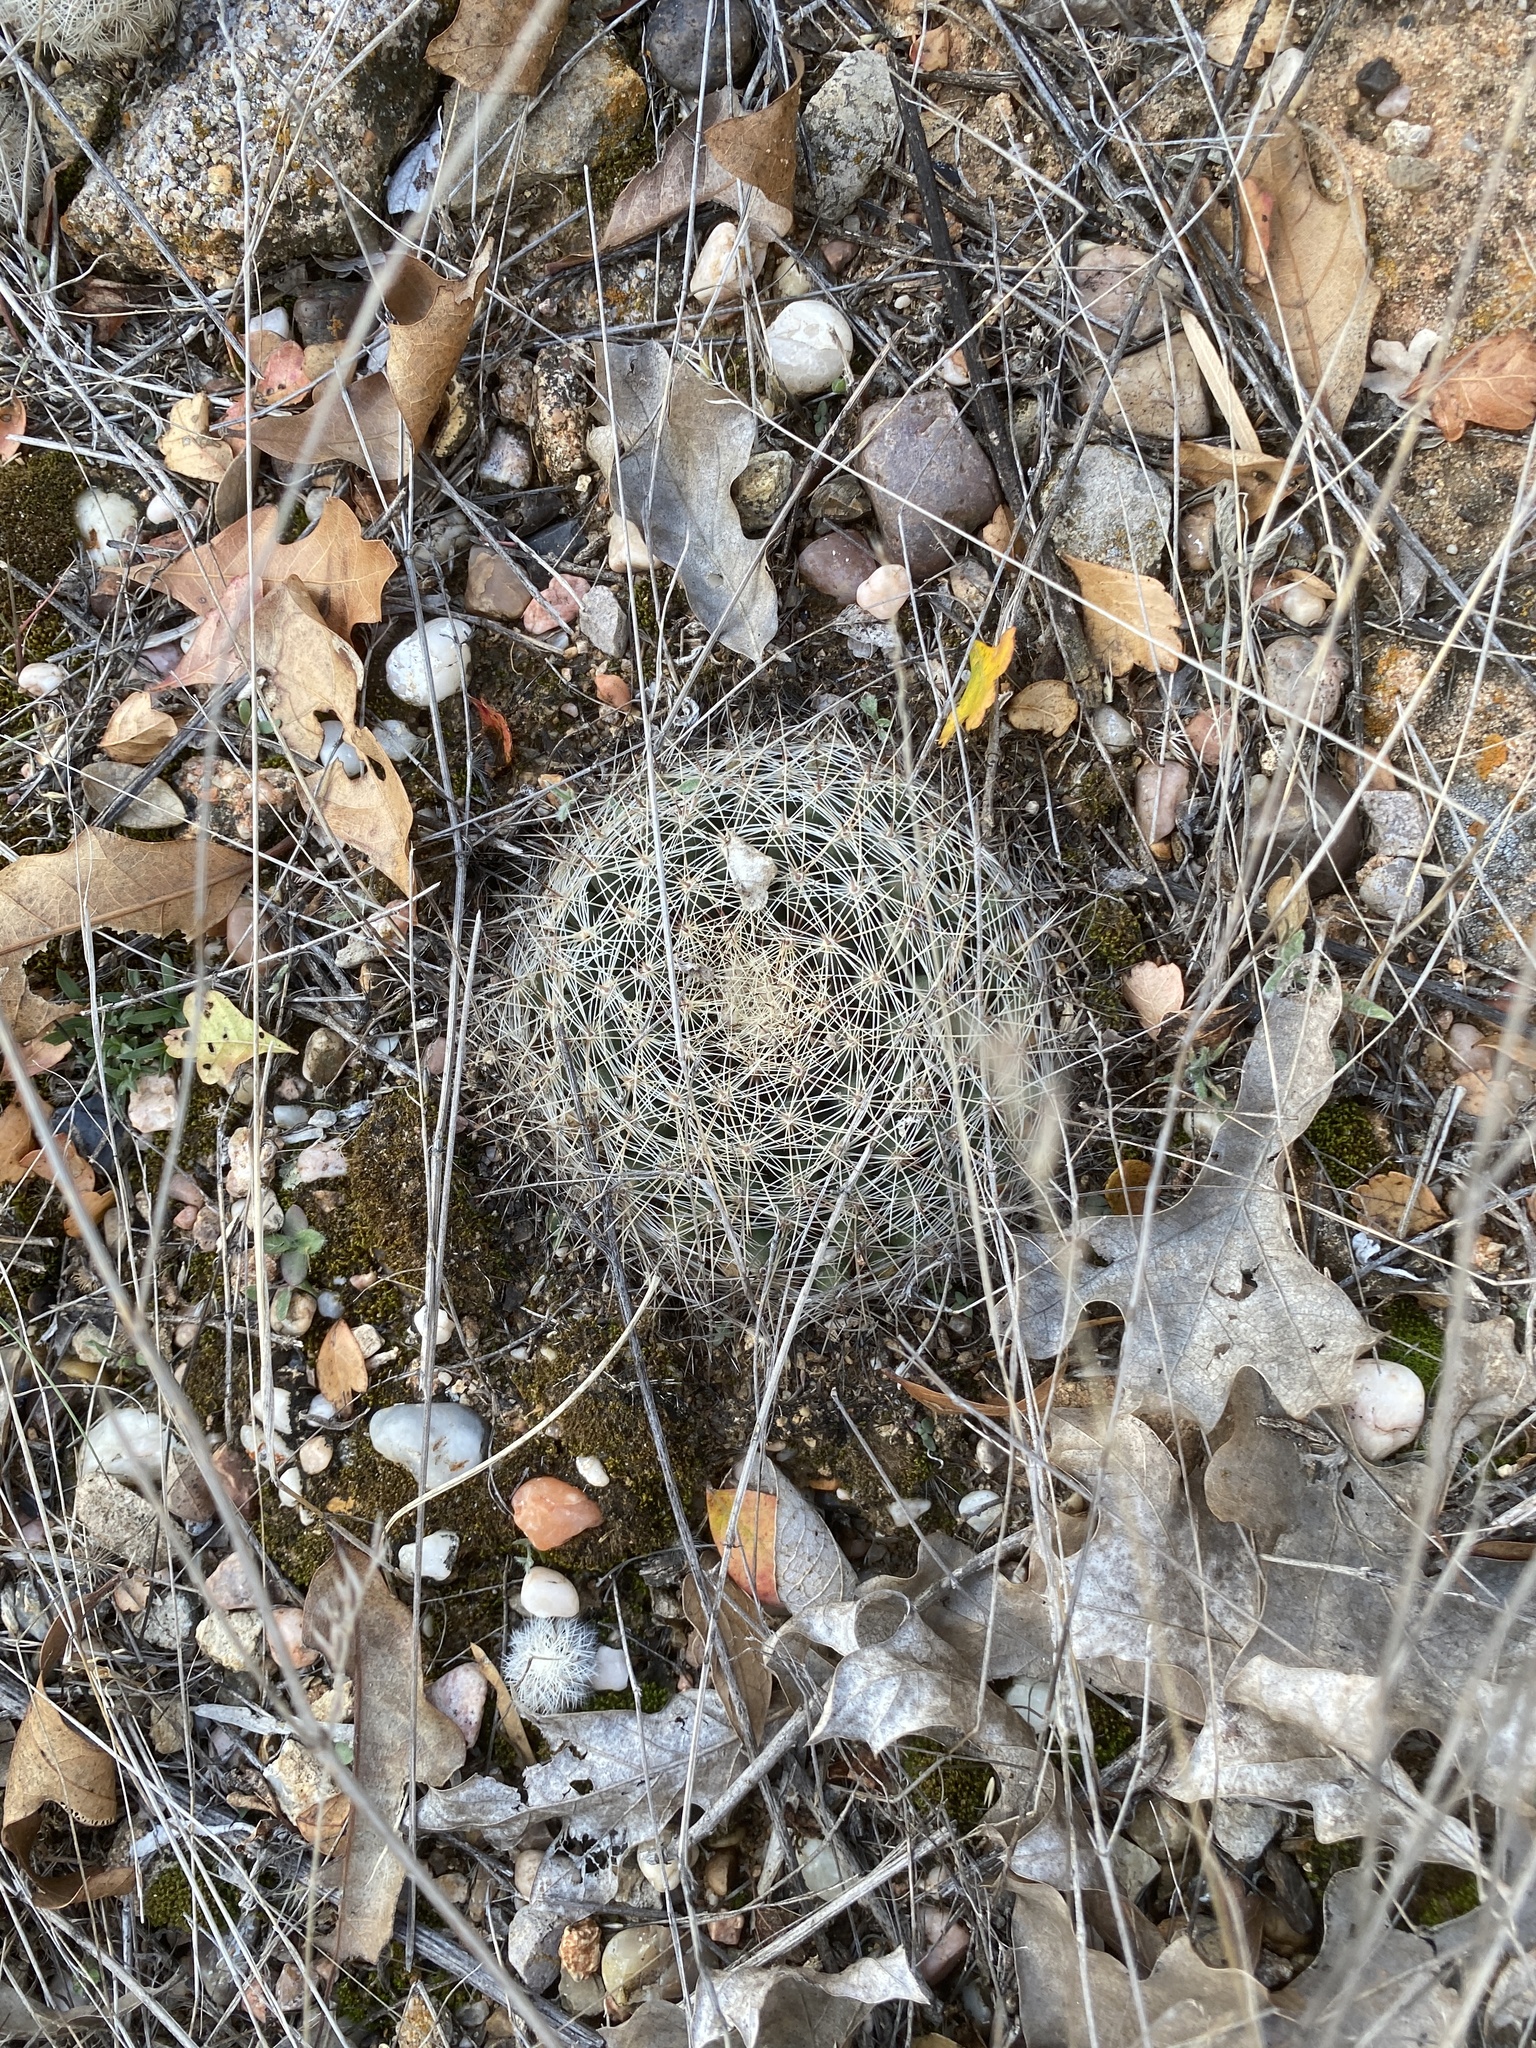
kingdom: Plantae
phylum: Tracheophyta
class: Magnoliopsida
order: Caryophyllales
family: Cactaceae
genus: Mammillaria
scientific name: Mammillaria heyderi
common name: Little nipple cactus
